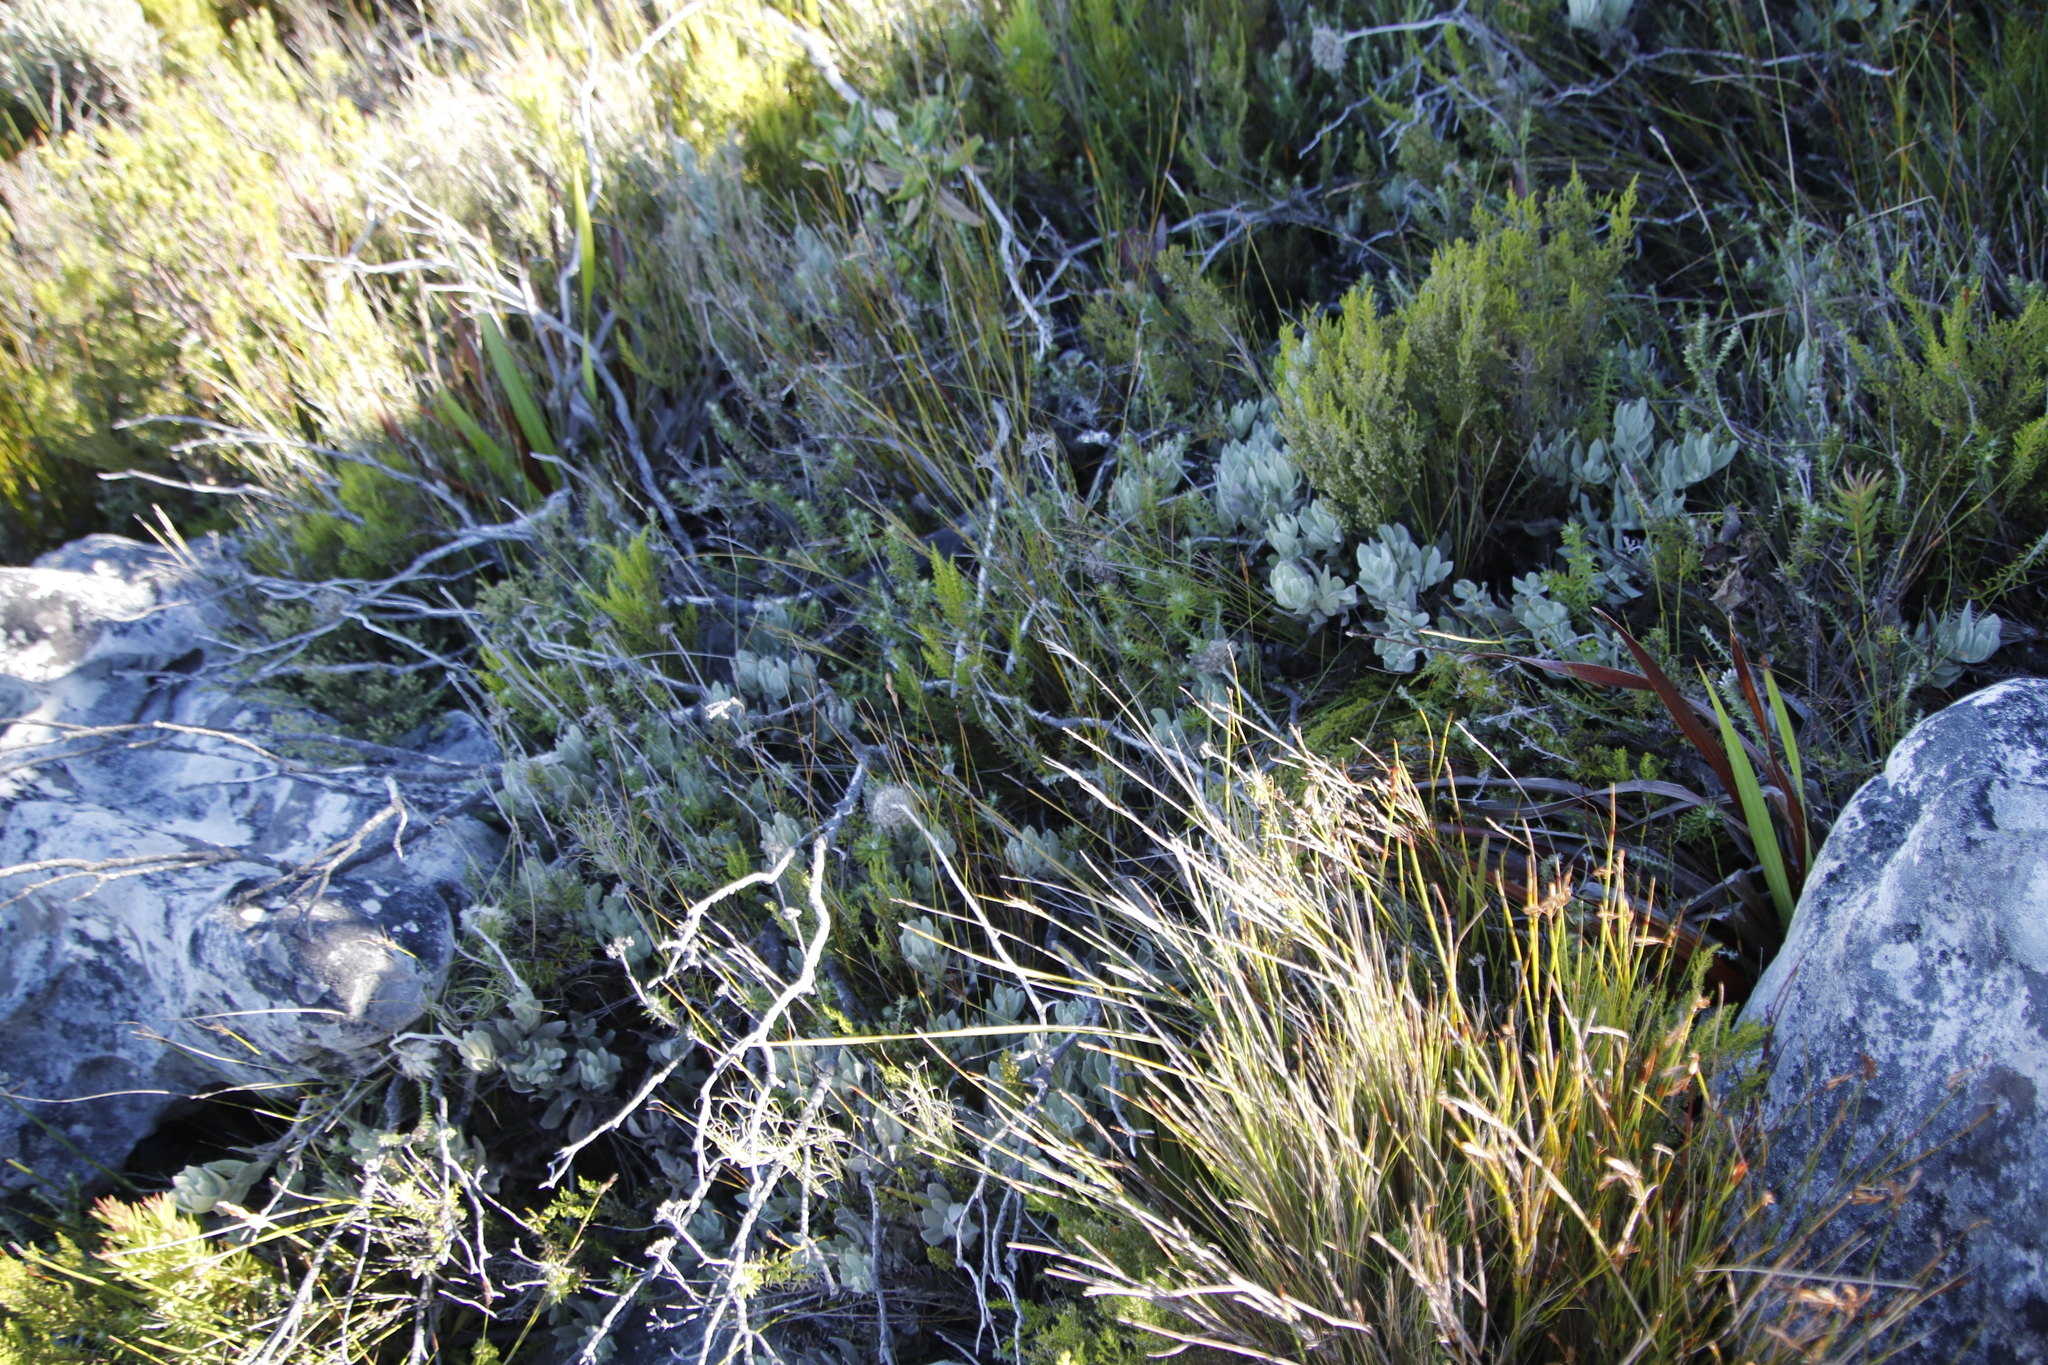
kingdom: Plantae
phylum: Tracheophyta
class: Magnoliopsida
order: Asterales
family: Asteraceae
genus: Syncarpha
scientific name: Syncarpha speciosissima
